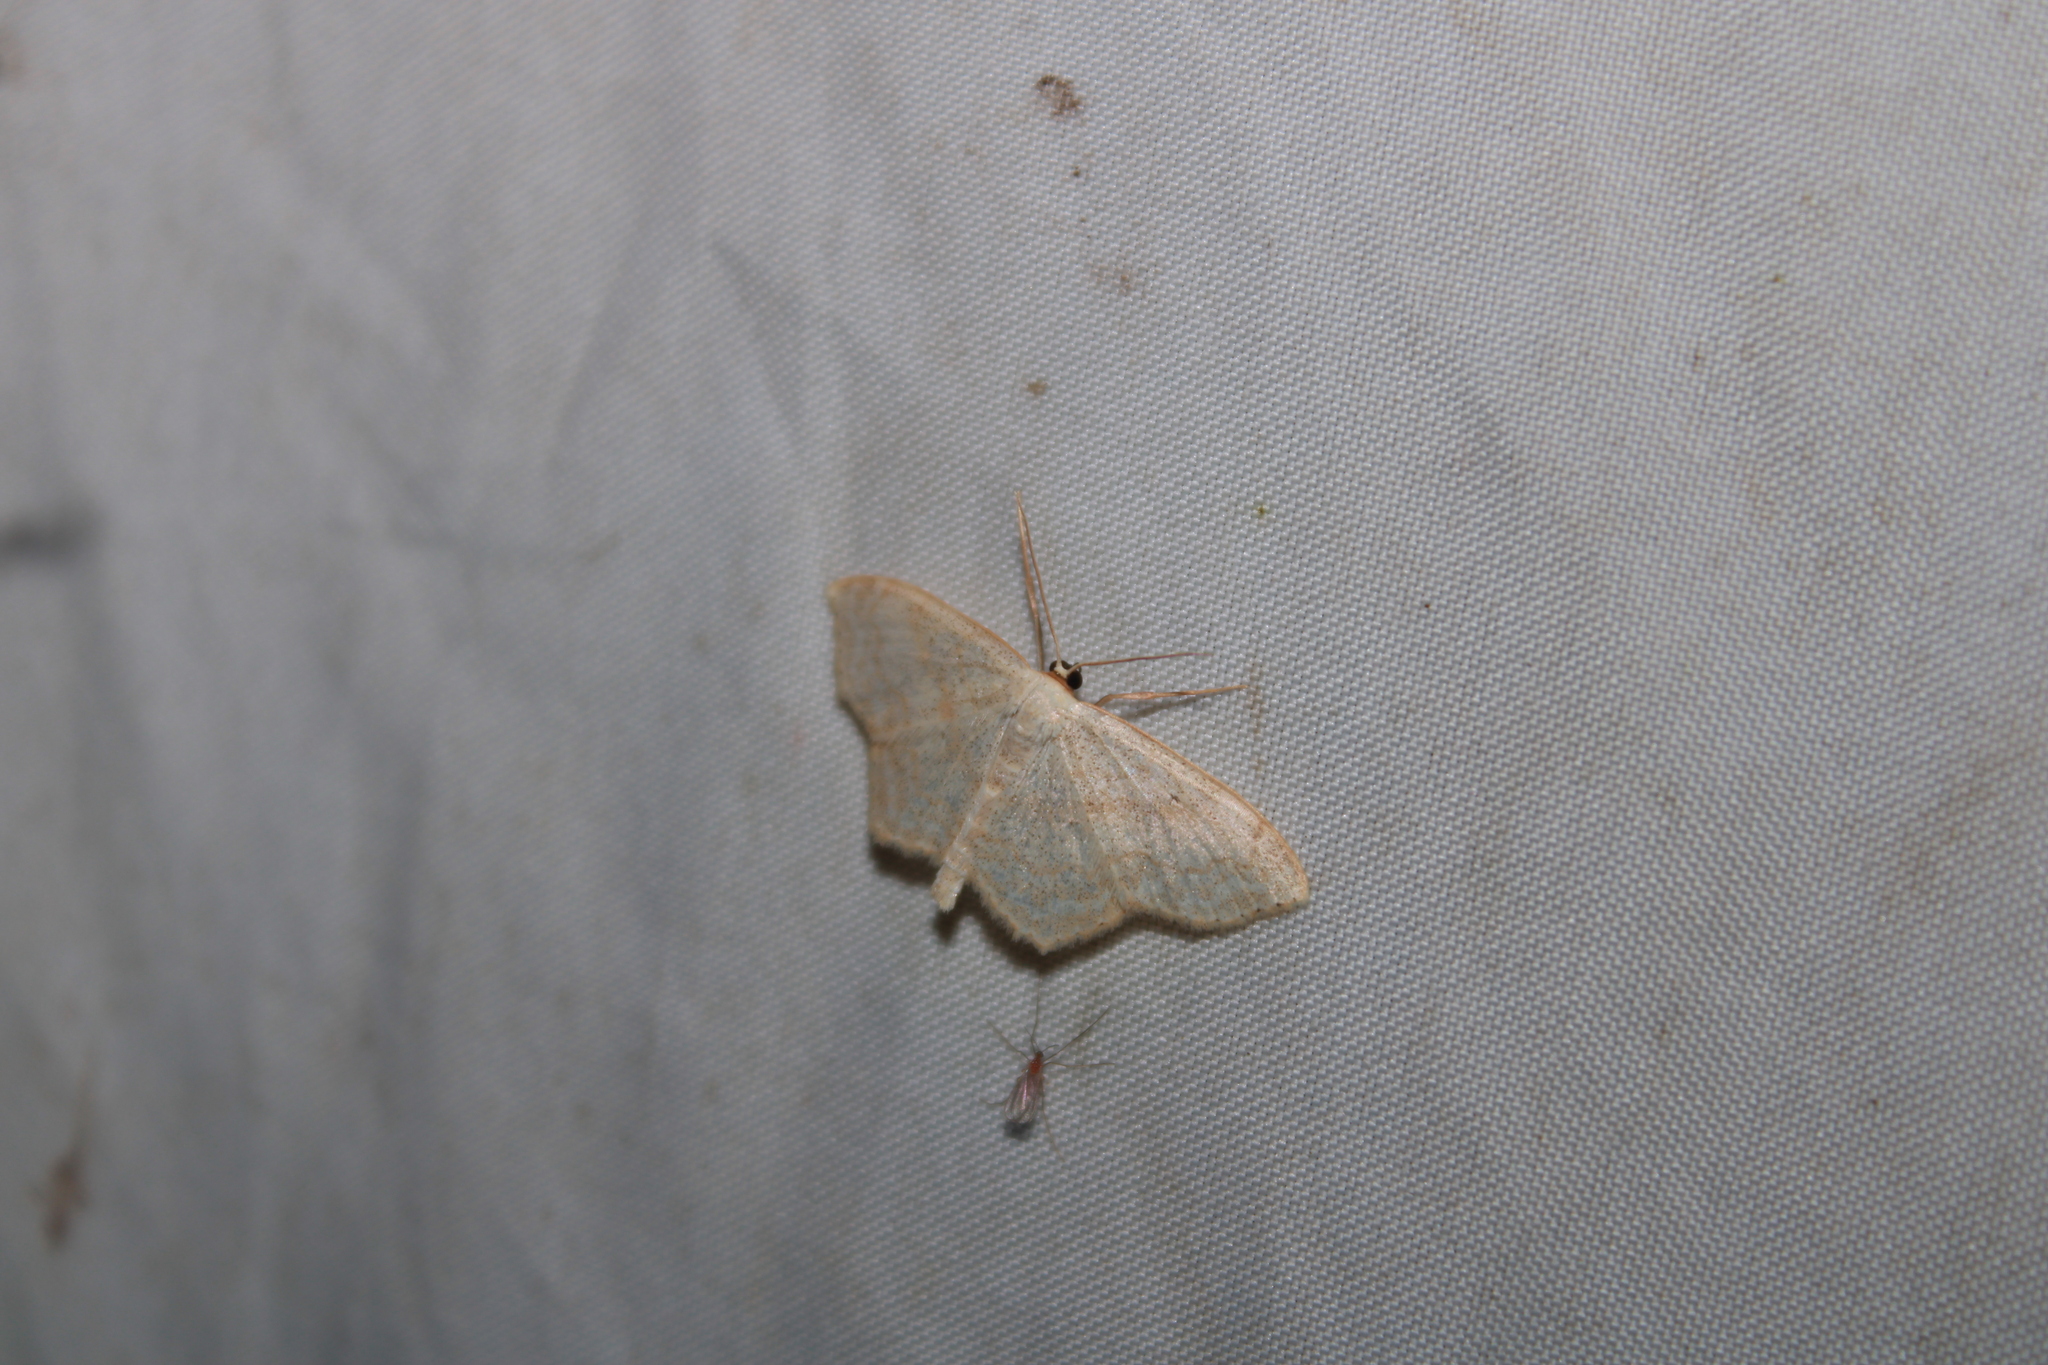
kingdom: Animalia
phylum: Arthropoda
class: Insecta
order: Lepidoptera
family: Geometridae
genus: Scopula
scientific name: Scopula limboundata
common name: Large lace border
